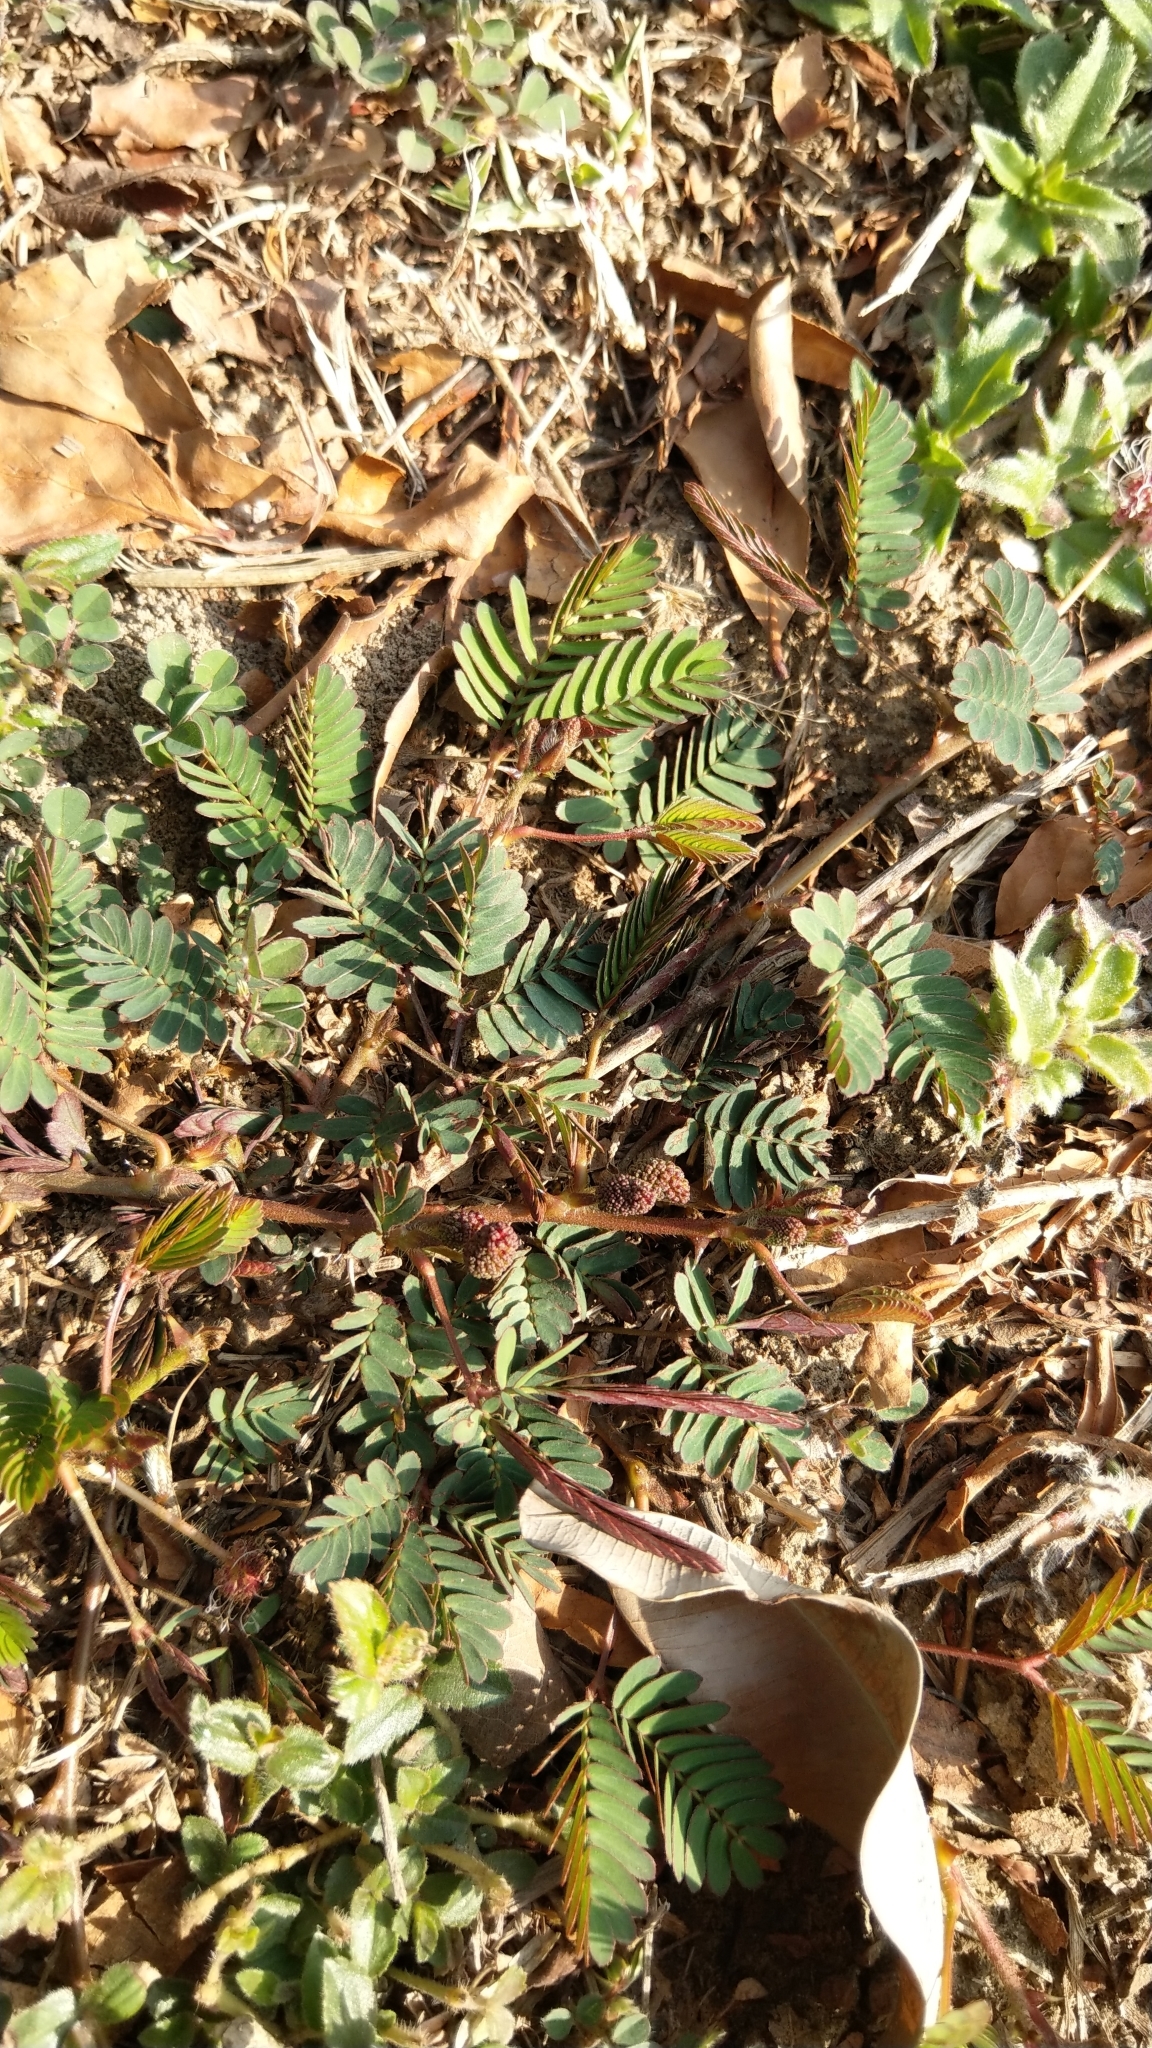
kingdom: Plantae
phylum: Tracheophyta
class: Magnoliopsida
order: Fabales
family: Fabaceae
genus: Mimosa
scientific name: Mimosa pudica
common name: Sensitive plant
